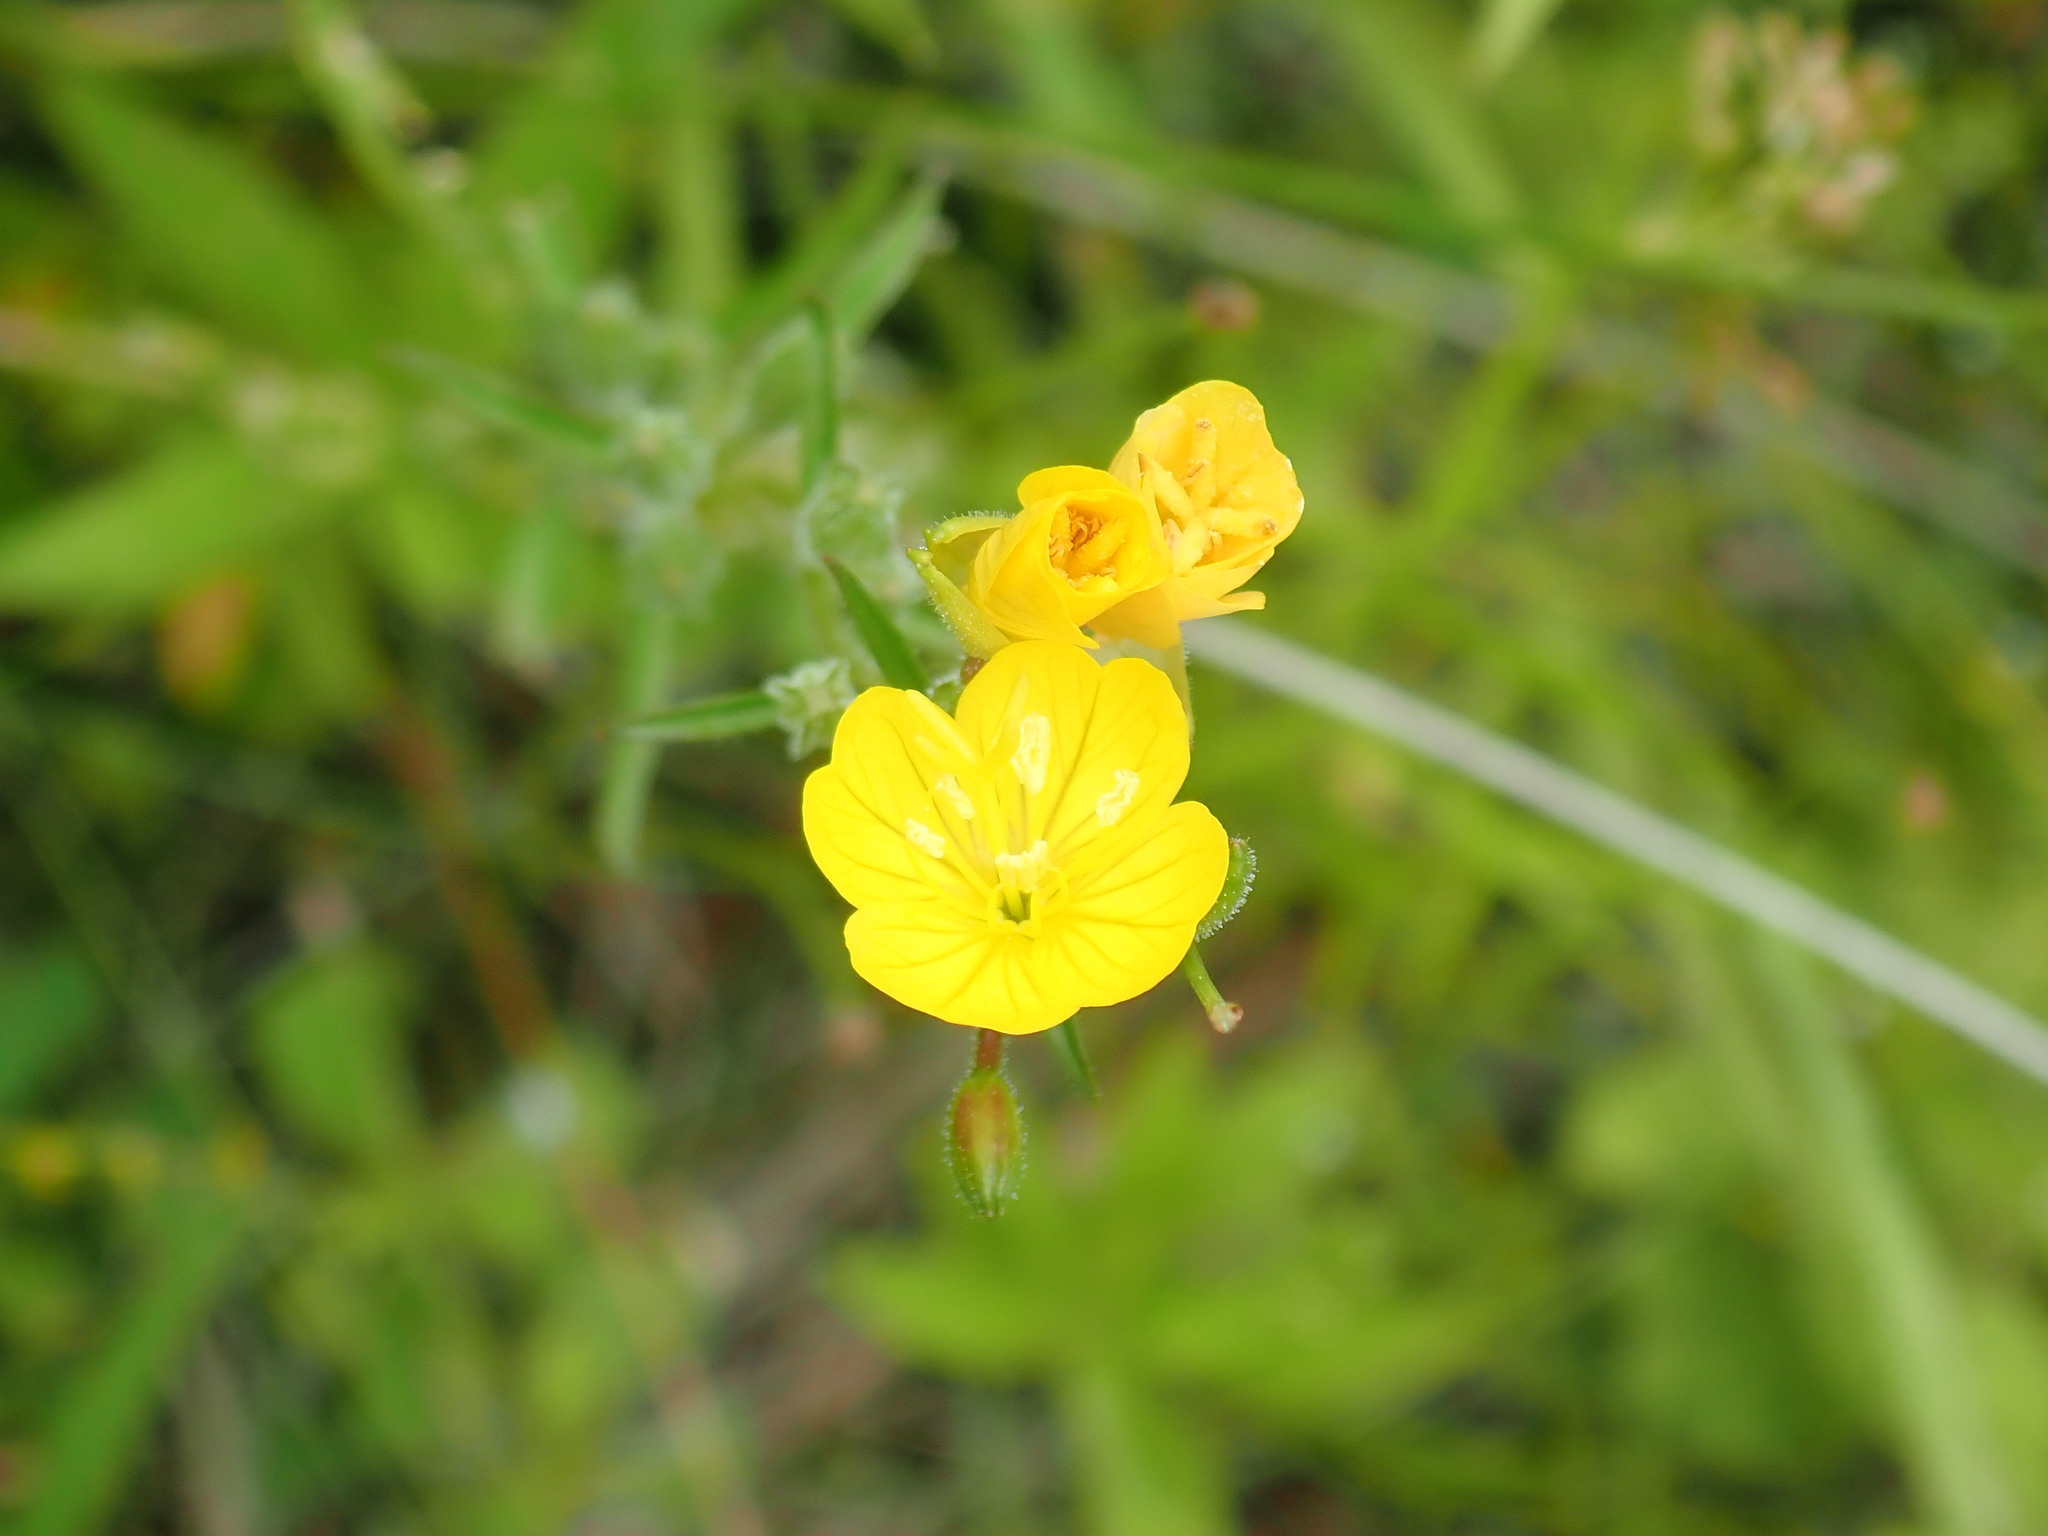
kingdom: Plantae
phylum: Tracheophyta
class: Magnoliopsida
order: Myrtales
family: Onagraceae
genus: Oenothera
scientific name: Oenothera perennis
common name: Small sundrops
